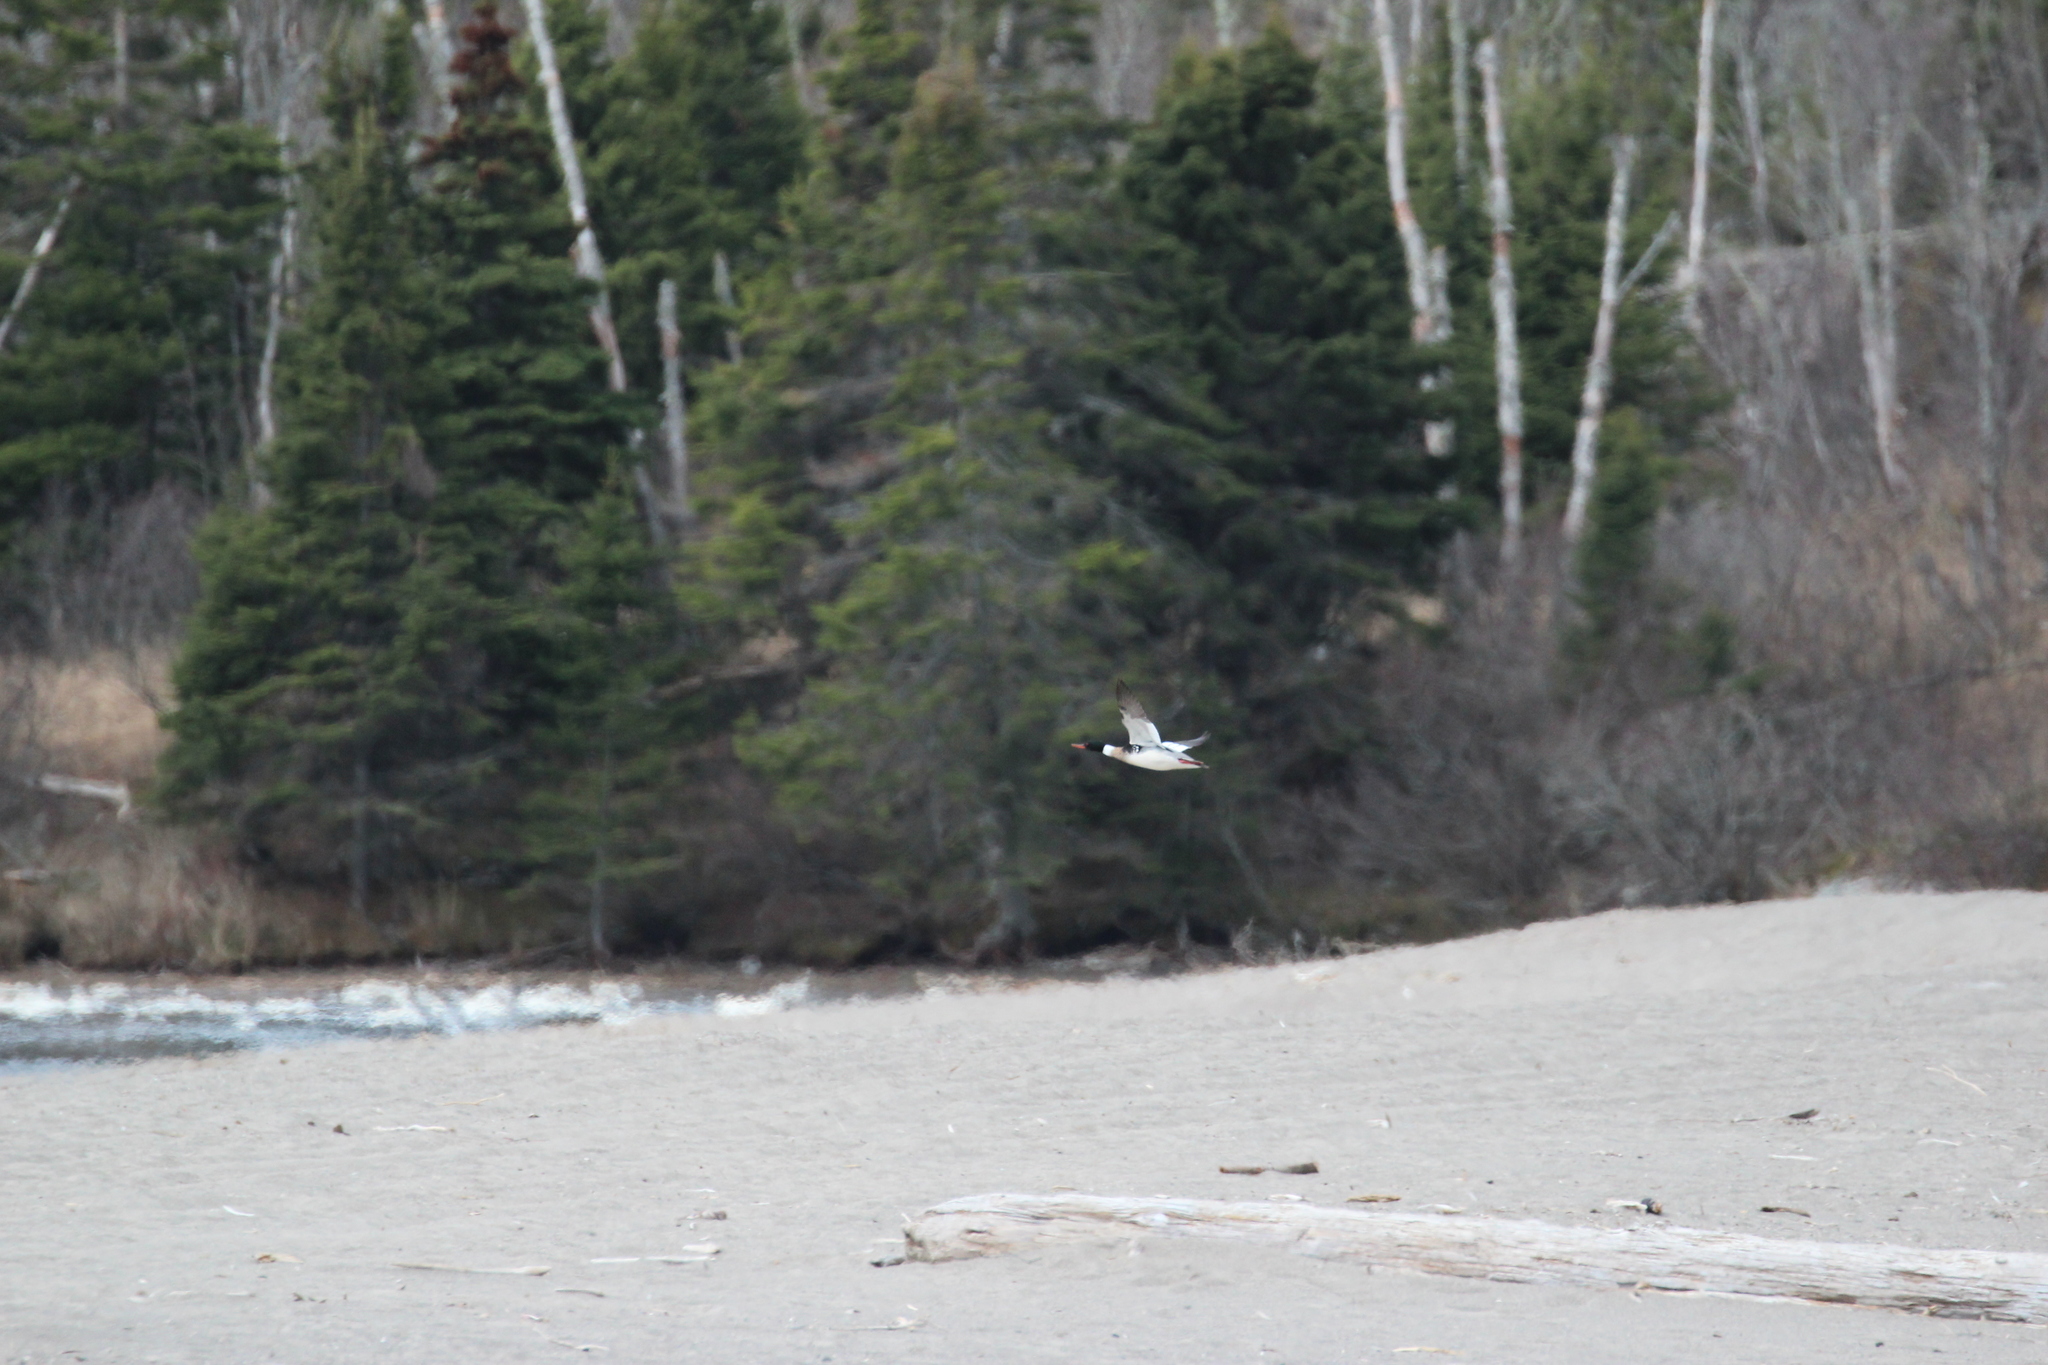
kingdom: Animalia
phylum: Chordata
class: Aves
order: Anseriformes
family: Anatidae
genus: Mergus
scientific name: Mergus serrator
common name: Red-breasted merganser
